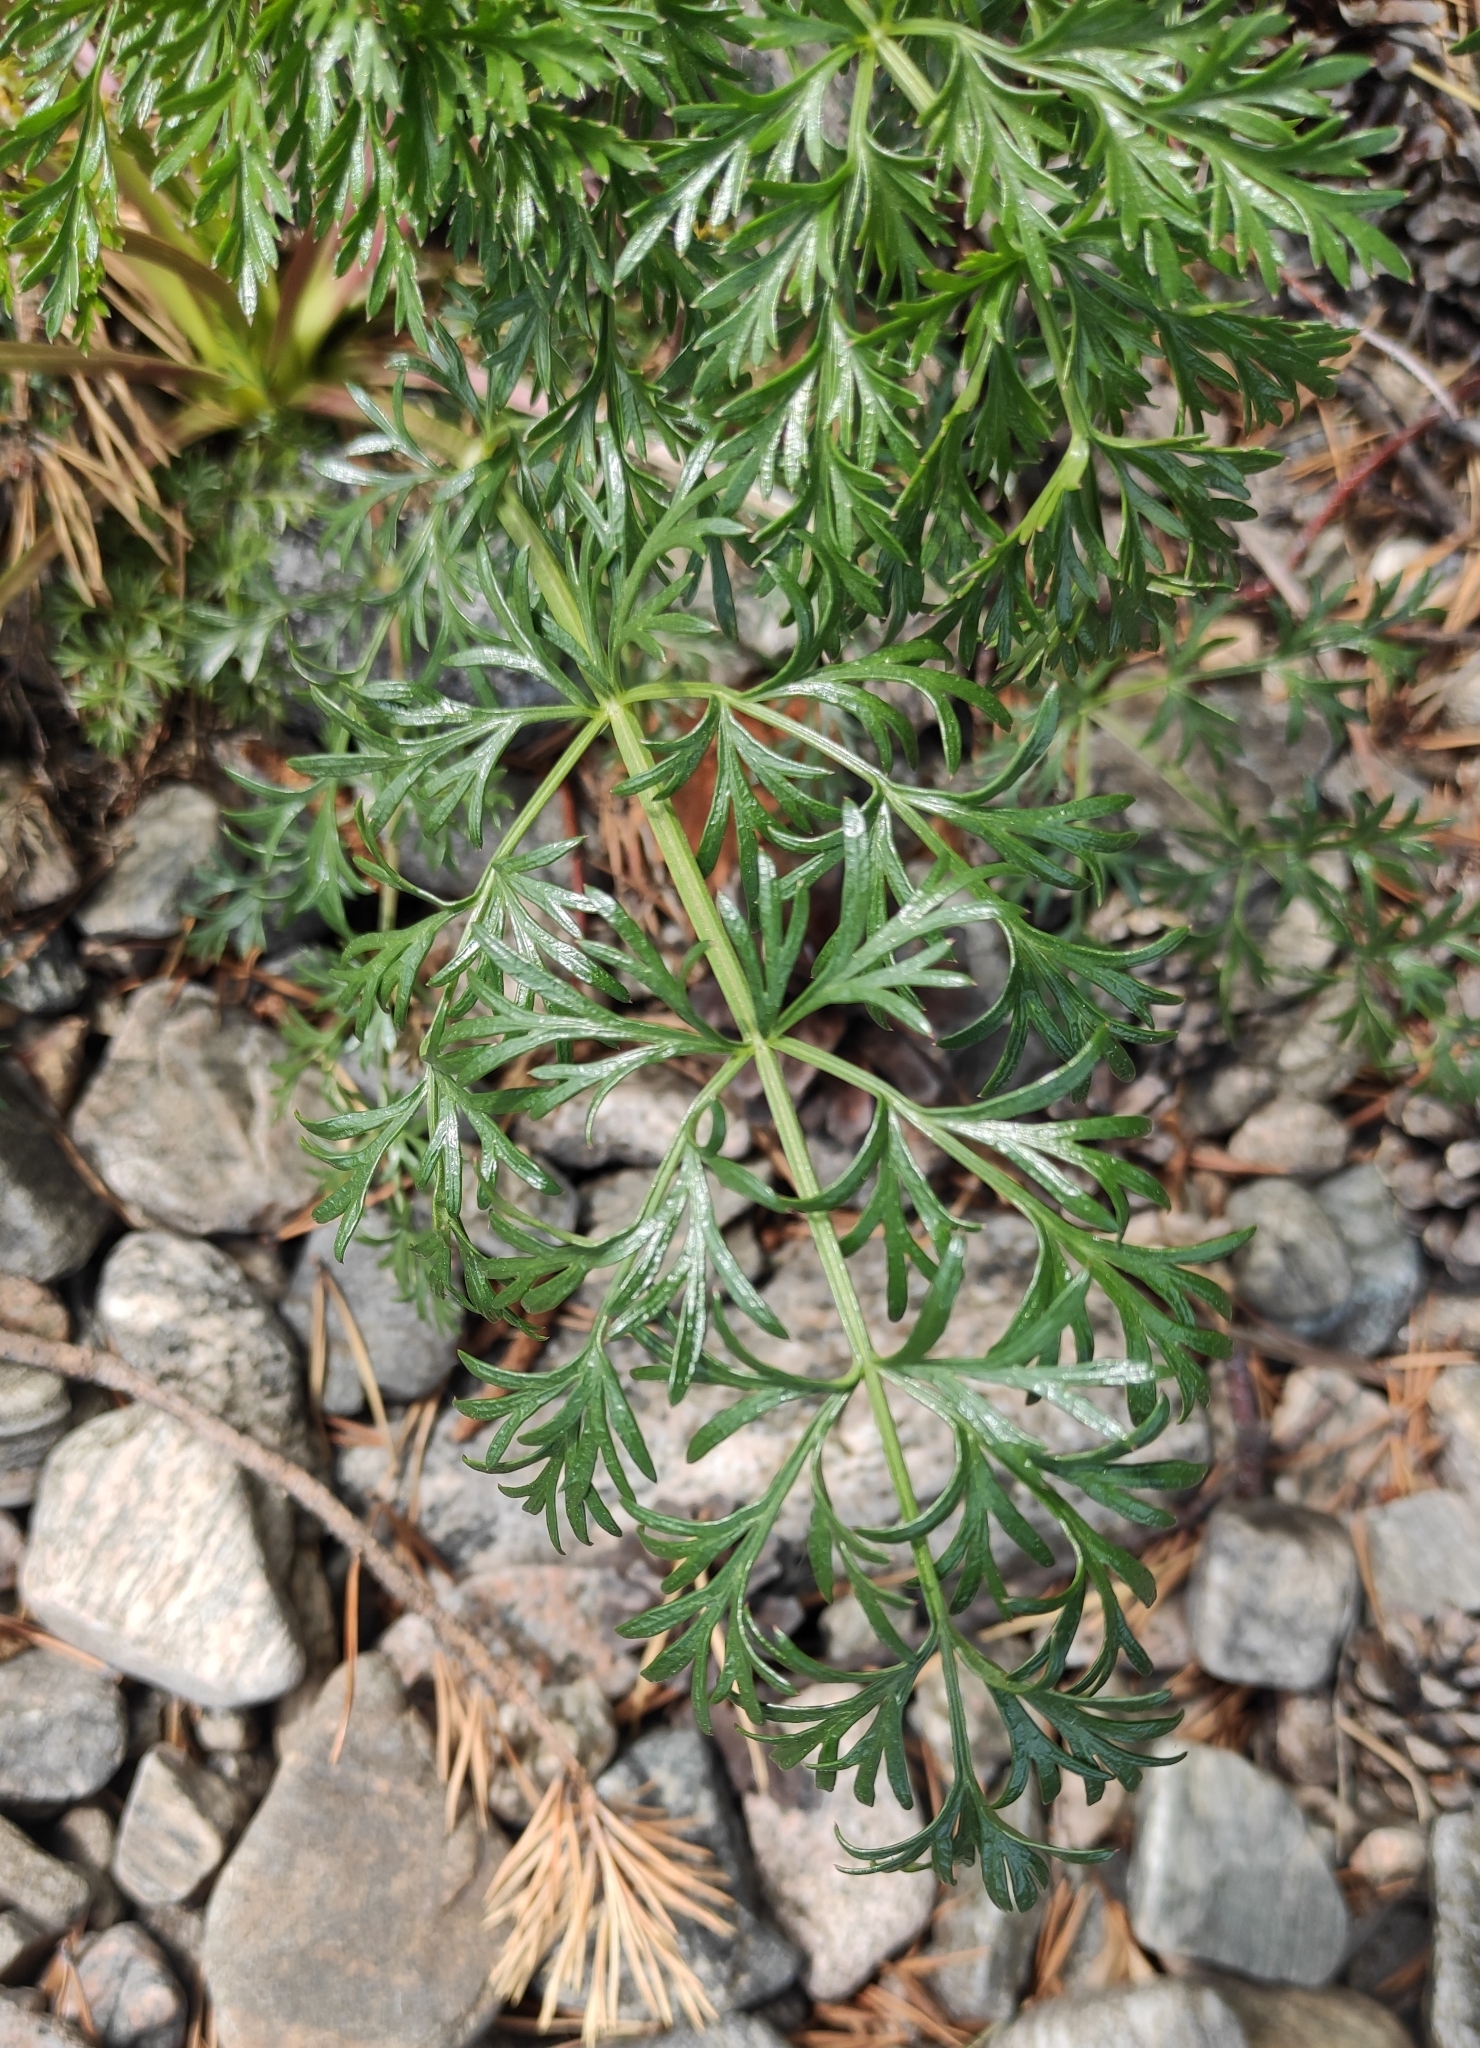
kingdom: Plantae
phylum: Tracheophyta
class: Magnoliopsida
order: Apiales
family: Apiaceae
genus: Kitagawia
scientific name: Kitagawia baicalensis
